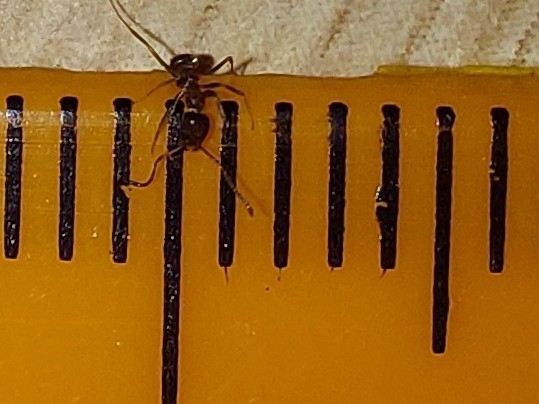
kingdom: Animalia
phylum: Arthropoda
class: Insecta
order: Hymenoptera
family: Formicidae
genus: Linepithema
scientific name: Linepithema humile
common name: Argentine ant
